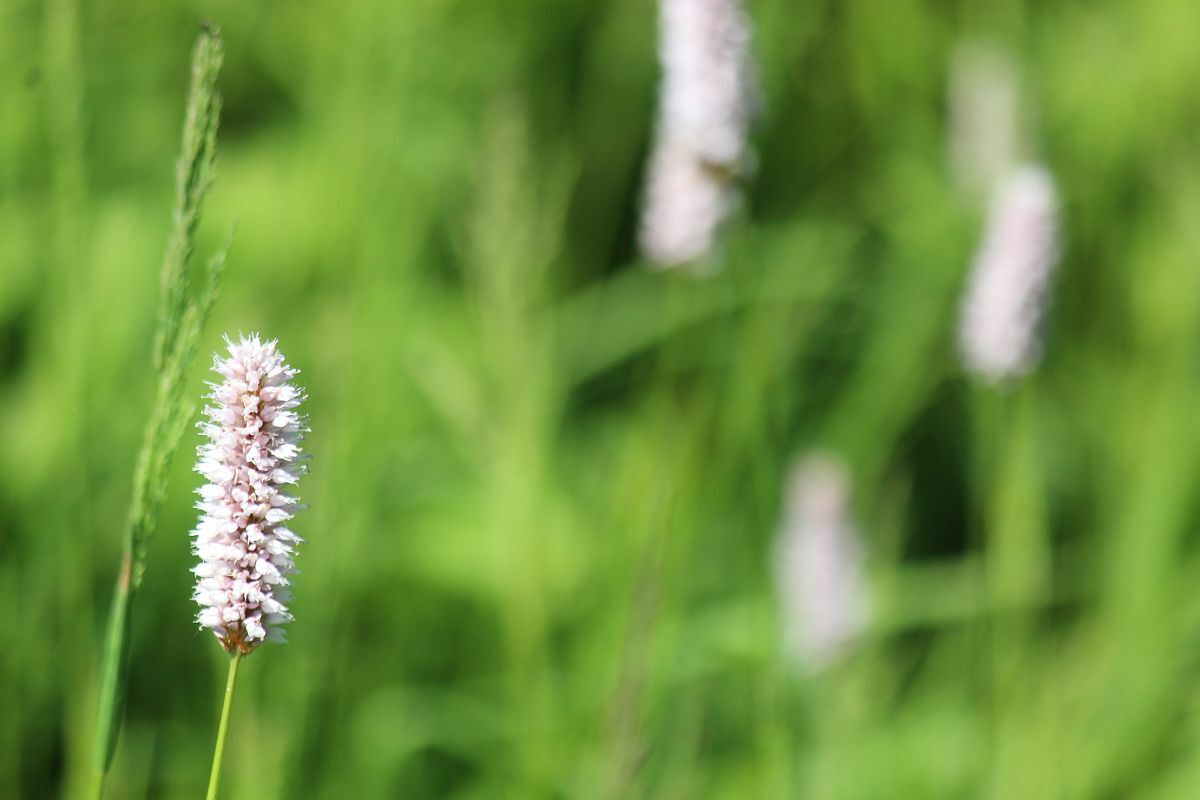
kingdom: Plantae
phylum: Tracheophyta
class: Magnoliopsida
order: Caryophyllales
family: Polygonaceae
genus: Bistorta
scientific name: Bistorta officinalis
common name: Common bistort
